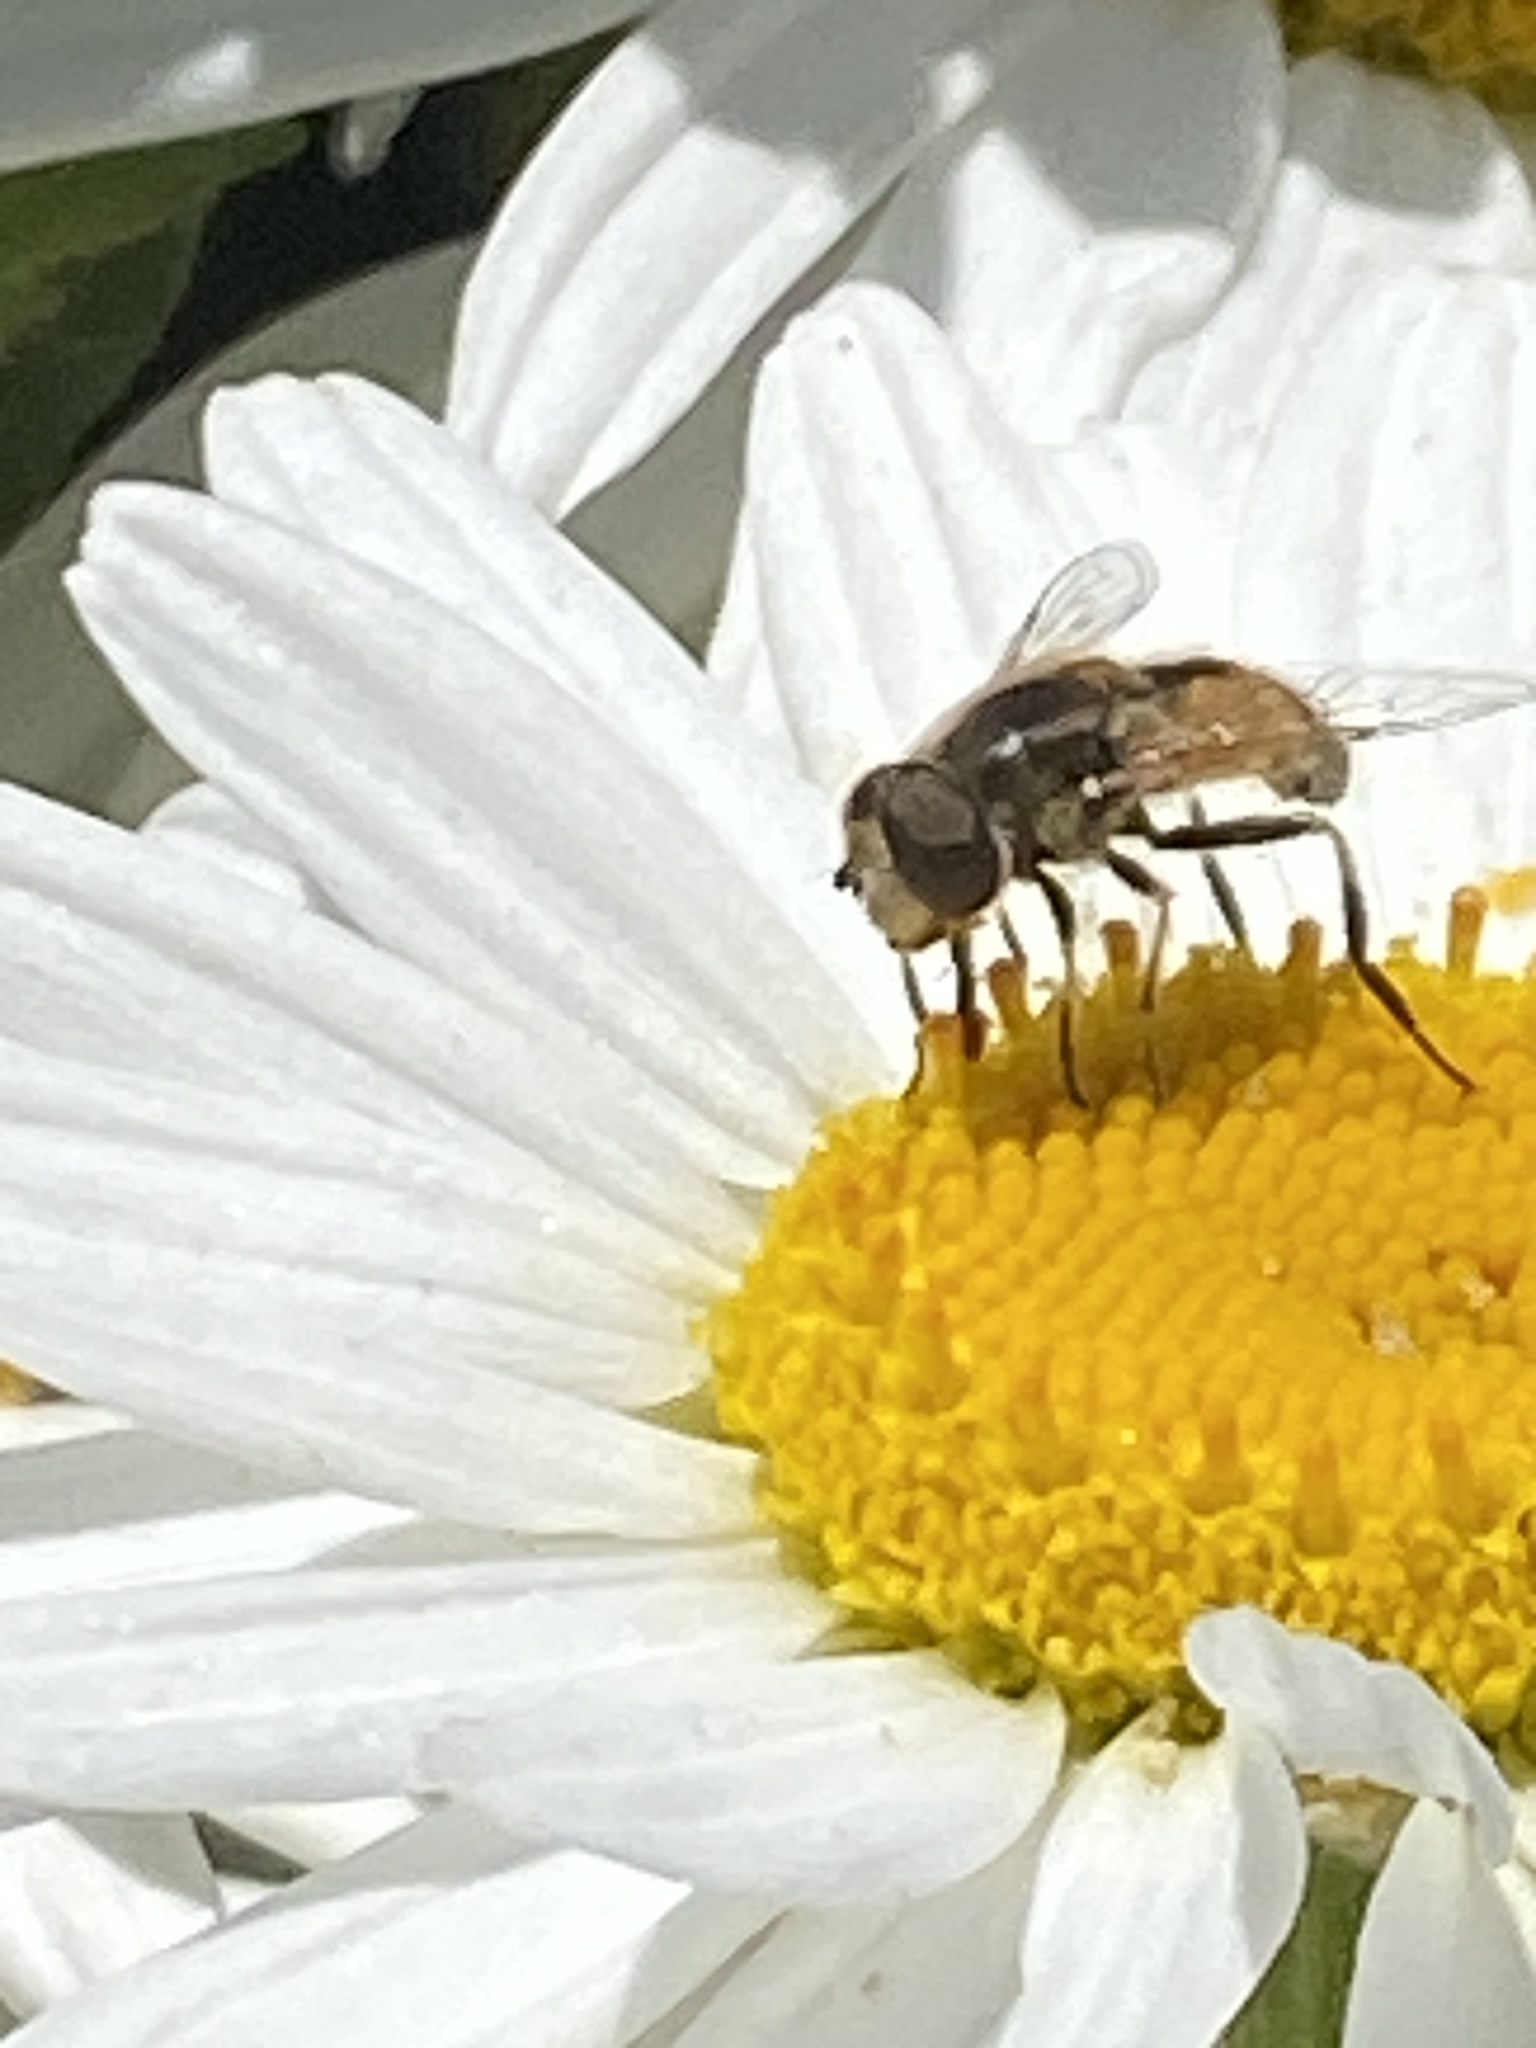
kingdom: Animalia
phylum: Arthropoda
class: Insecta
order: Diptera
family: Syrphidae
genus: Eristalis
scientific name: Eristalis arbustorum
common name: Hover fly
